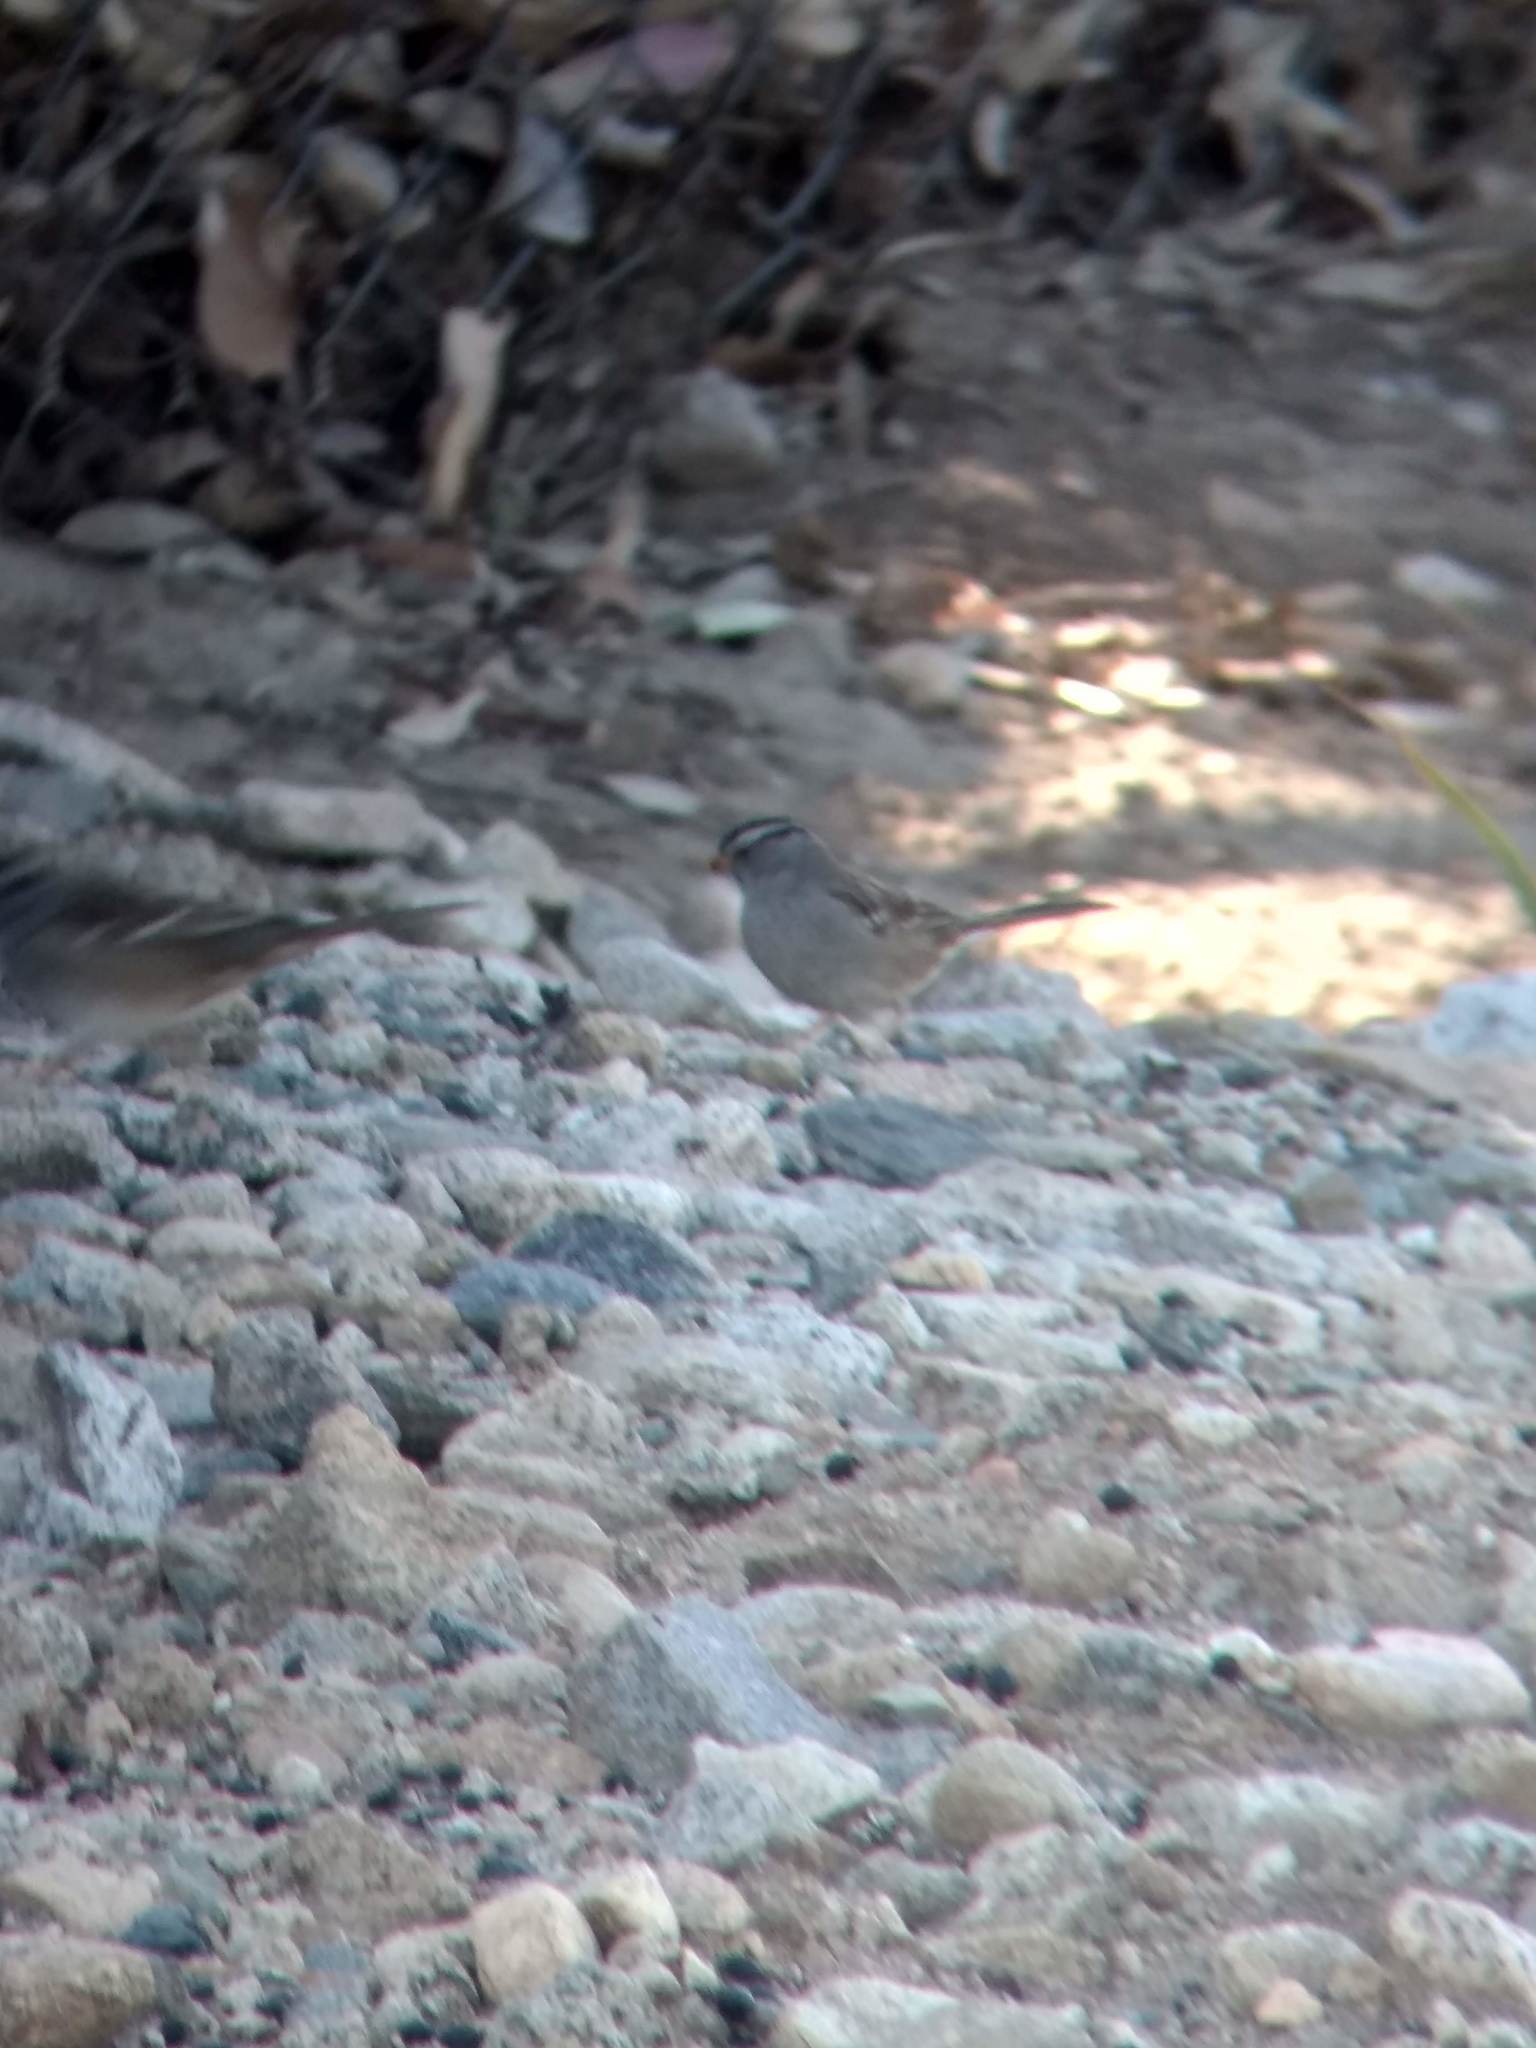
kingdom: Animalia
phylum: Chordata
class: Aves
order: Passeriformes
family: Passerellidae
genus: Zonotrichia
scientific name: Zonotrichia leucophrys
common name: White-crowned sparrow
